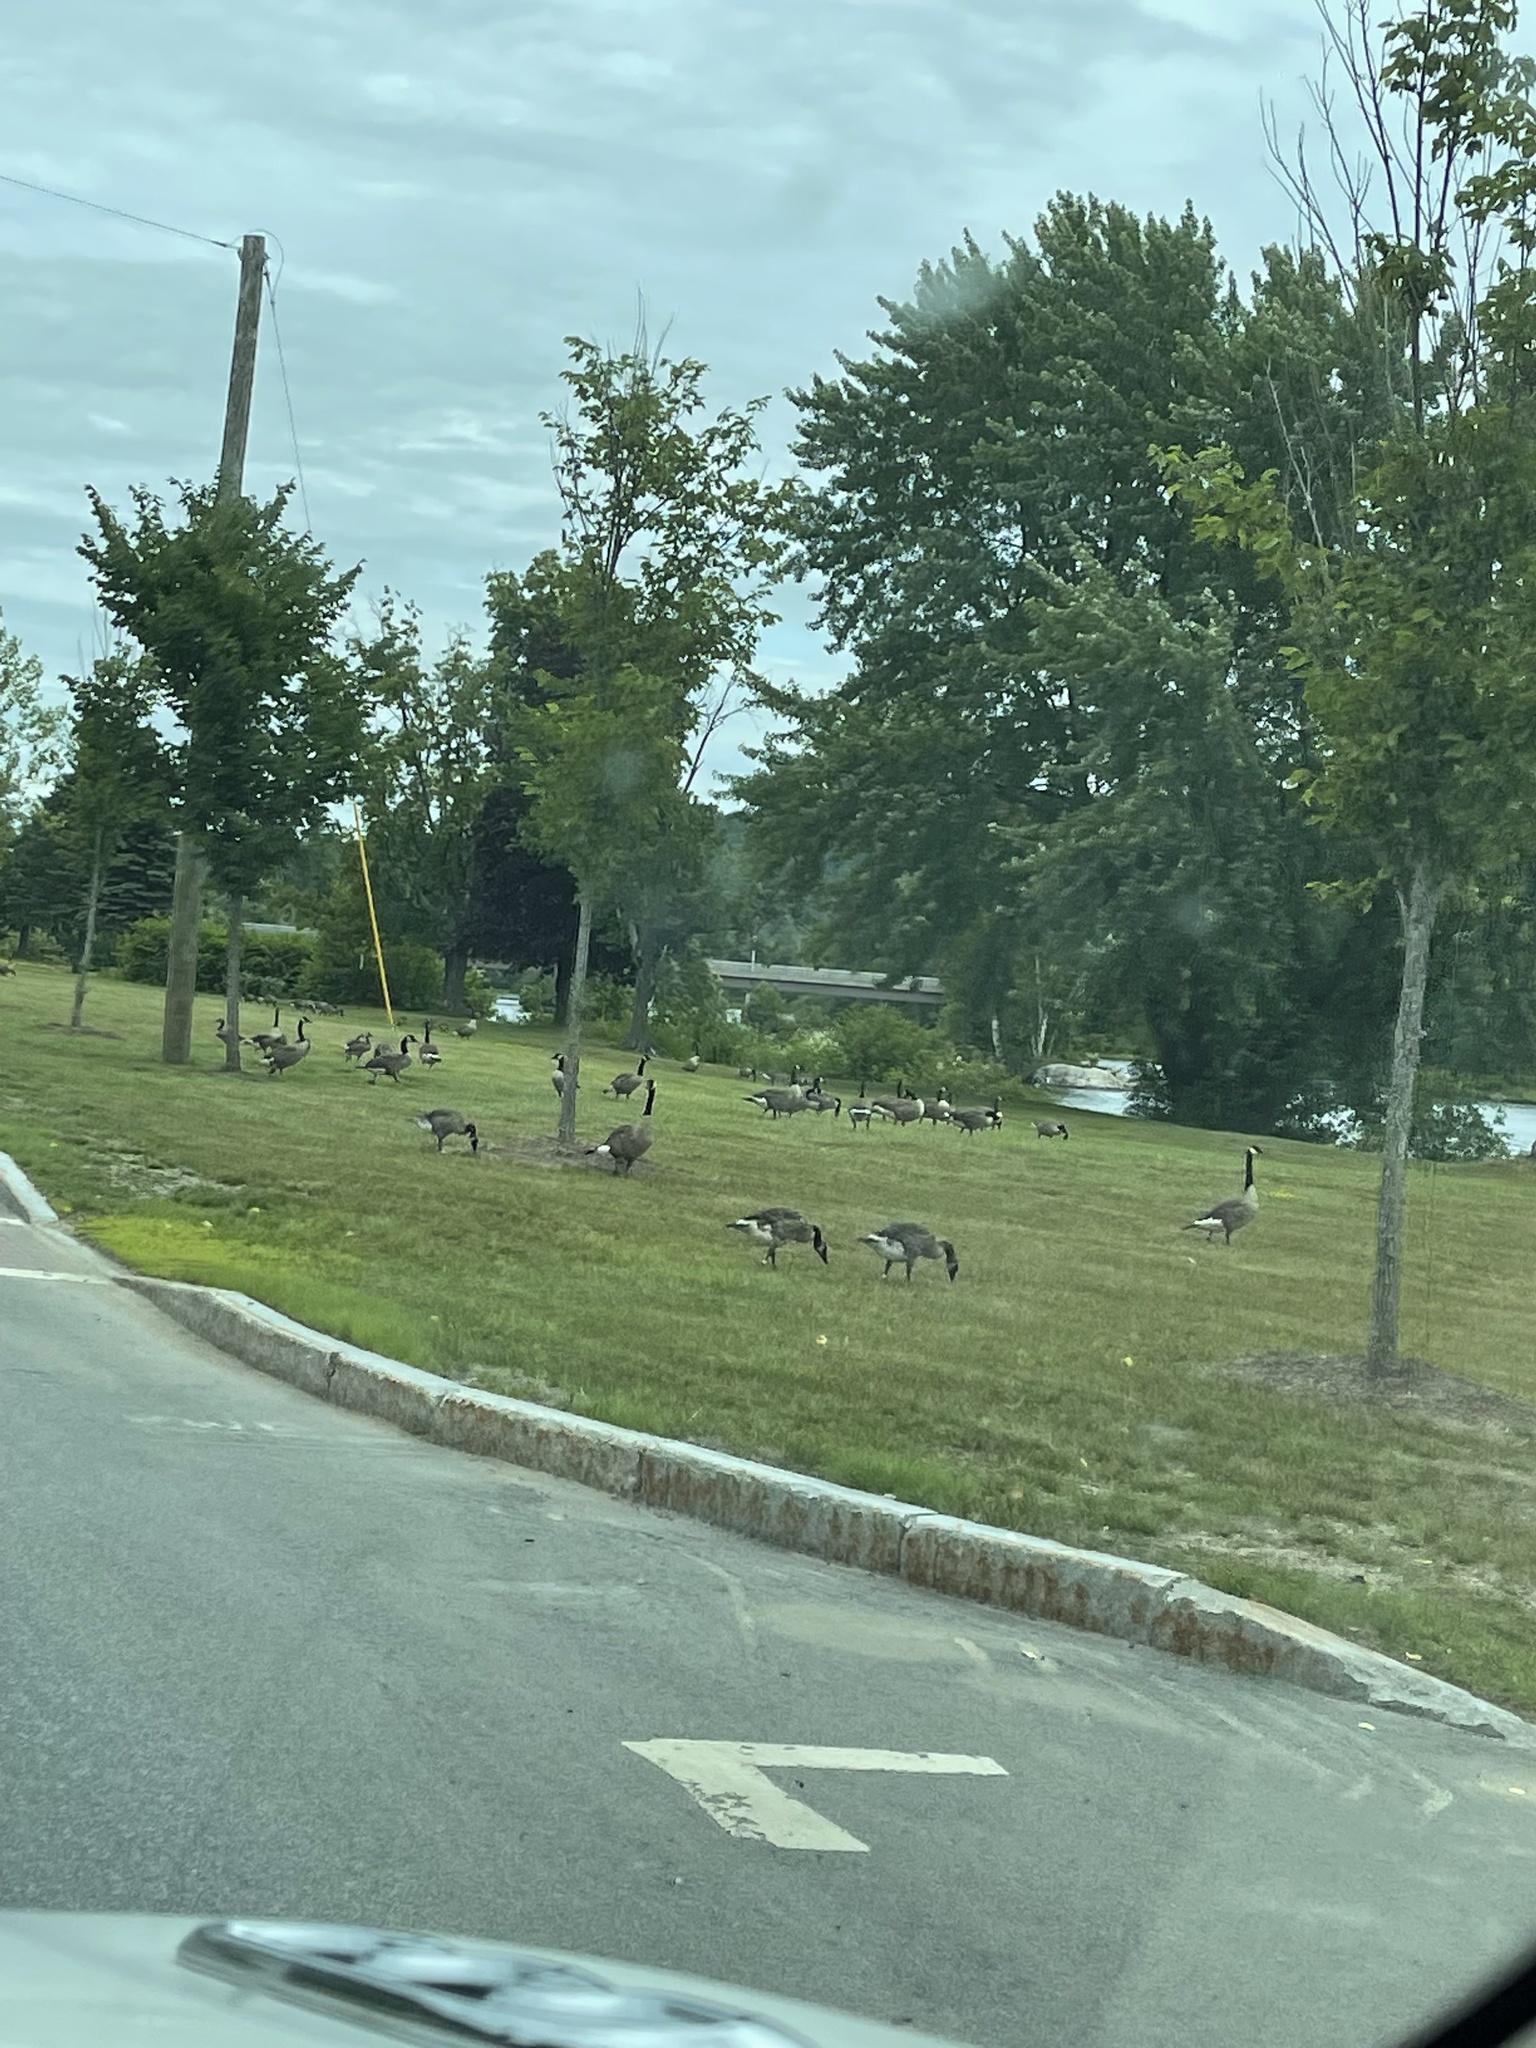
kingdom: Animalia
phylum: Chordata
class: Aves
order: Anseriformes
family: Anatidae
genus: Branta
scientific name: Branta canadensis
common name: Canada goose
